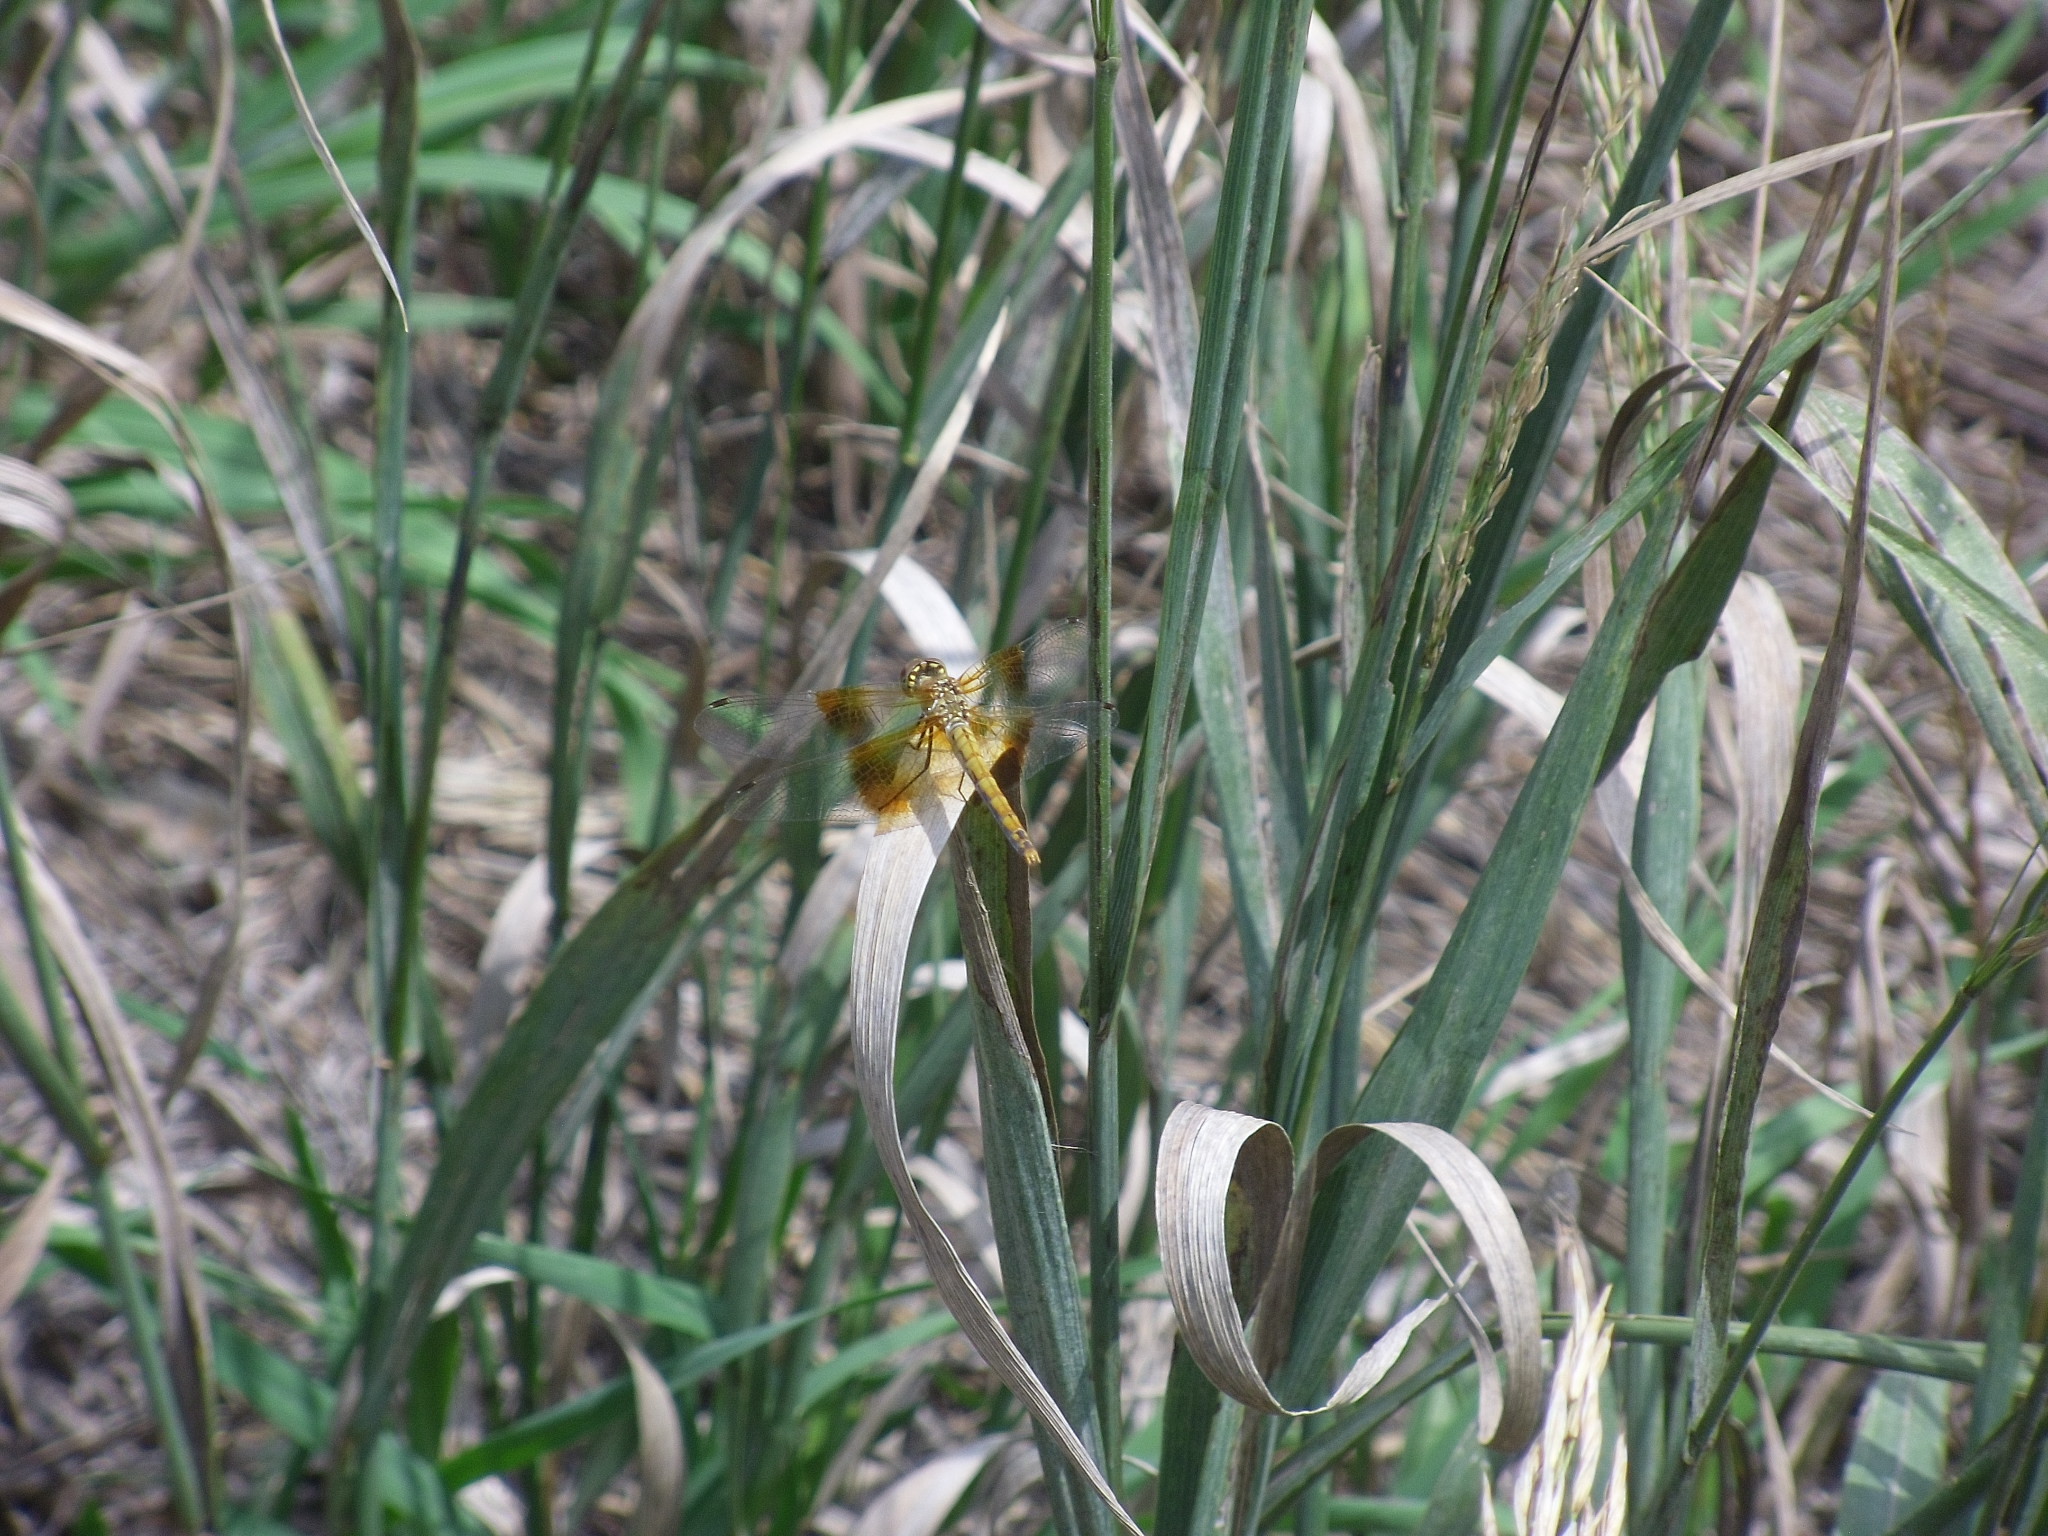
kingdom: Animalia
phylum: Arthropoda
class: Insecta
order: Odonata
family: Libellulidae
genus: Sympetrum
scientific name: Sympetrum semicinctum
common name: Band-winged meadowhawk
